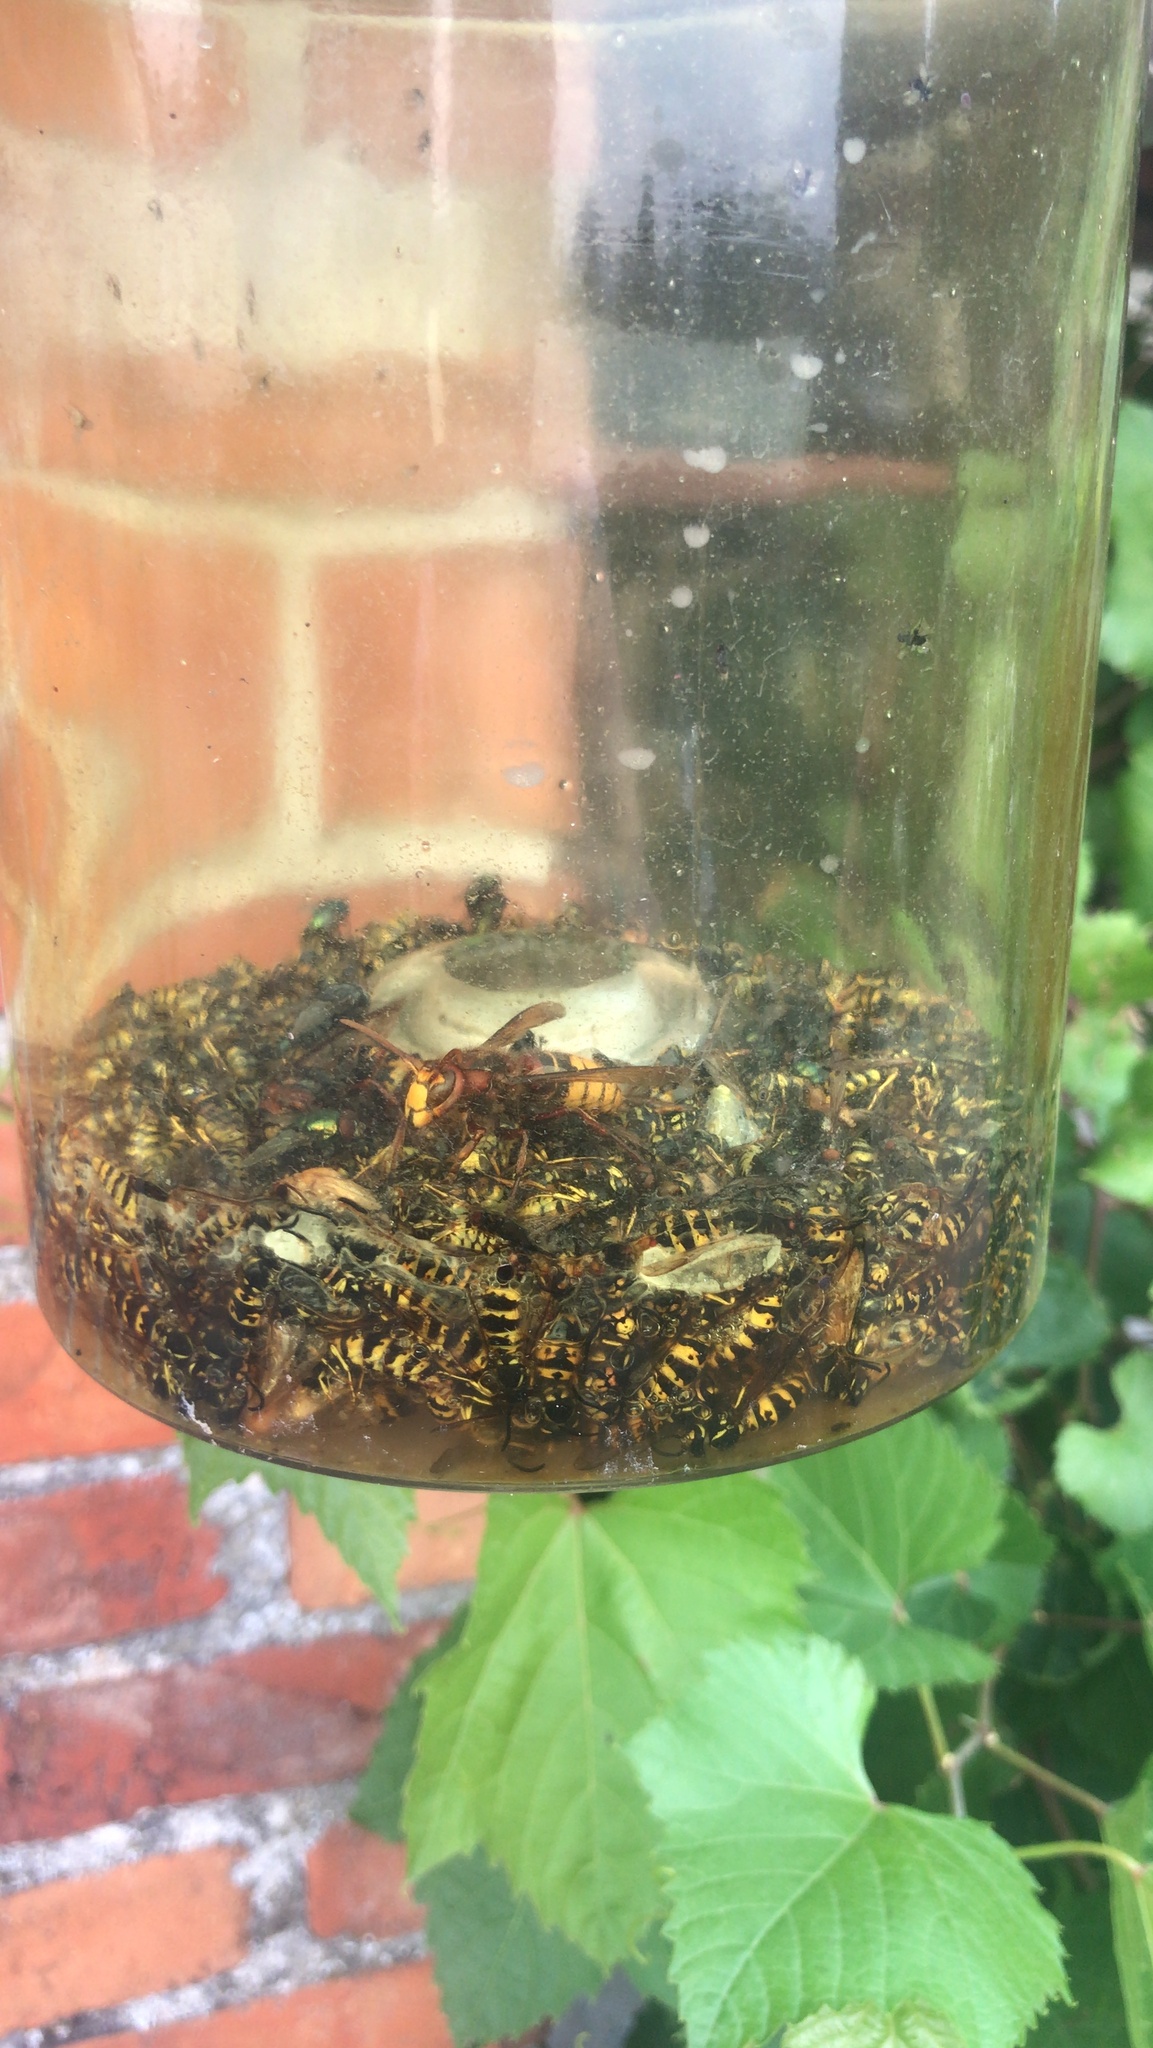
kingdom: Animalia
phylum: Arthropoda
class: Insecta
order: Hymenoptera
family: Vespidae
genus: Vespa
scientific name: Vespa crabro
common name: Hornet
